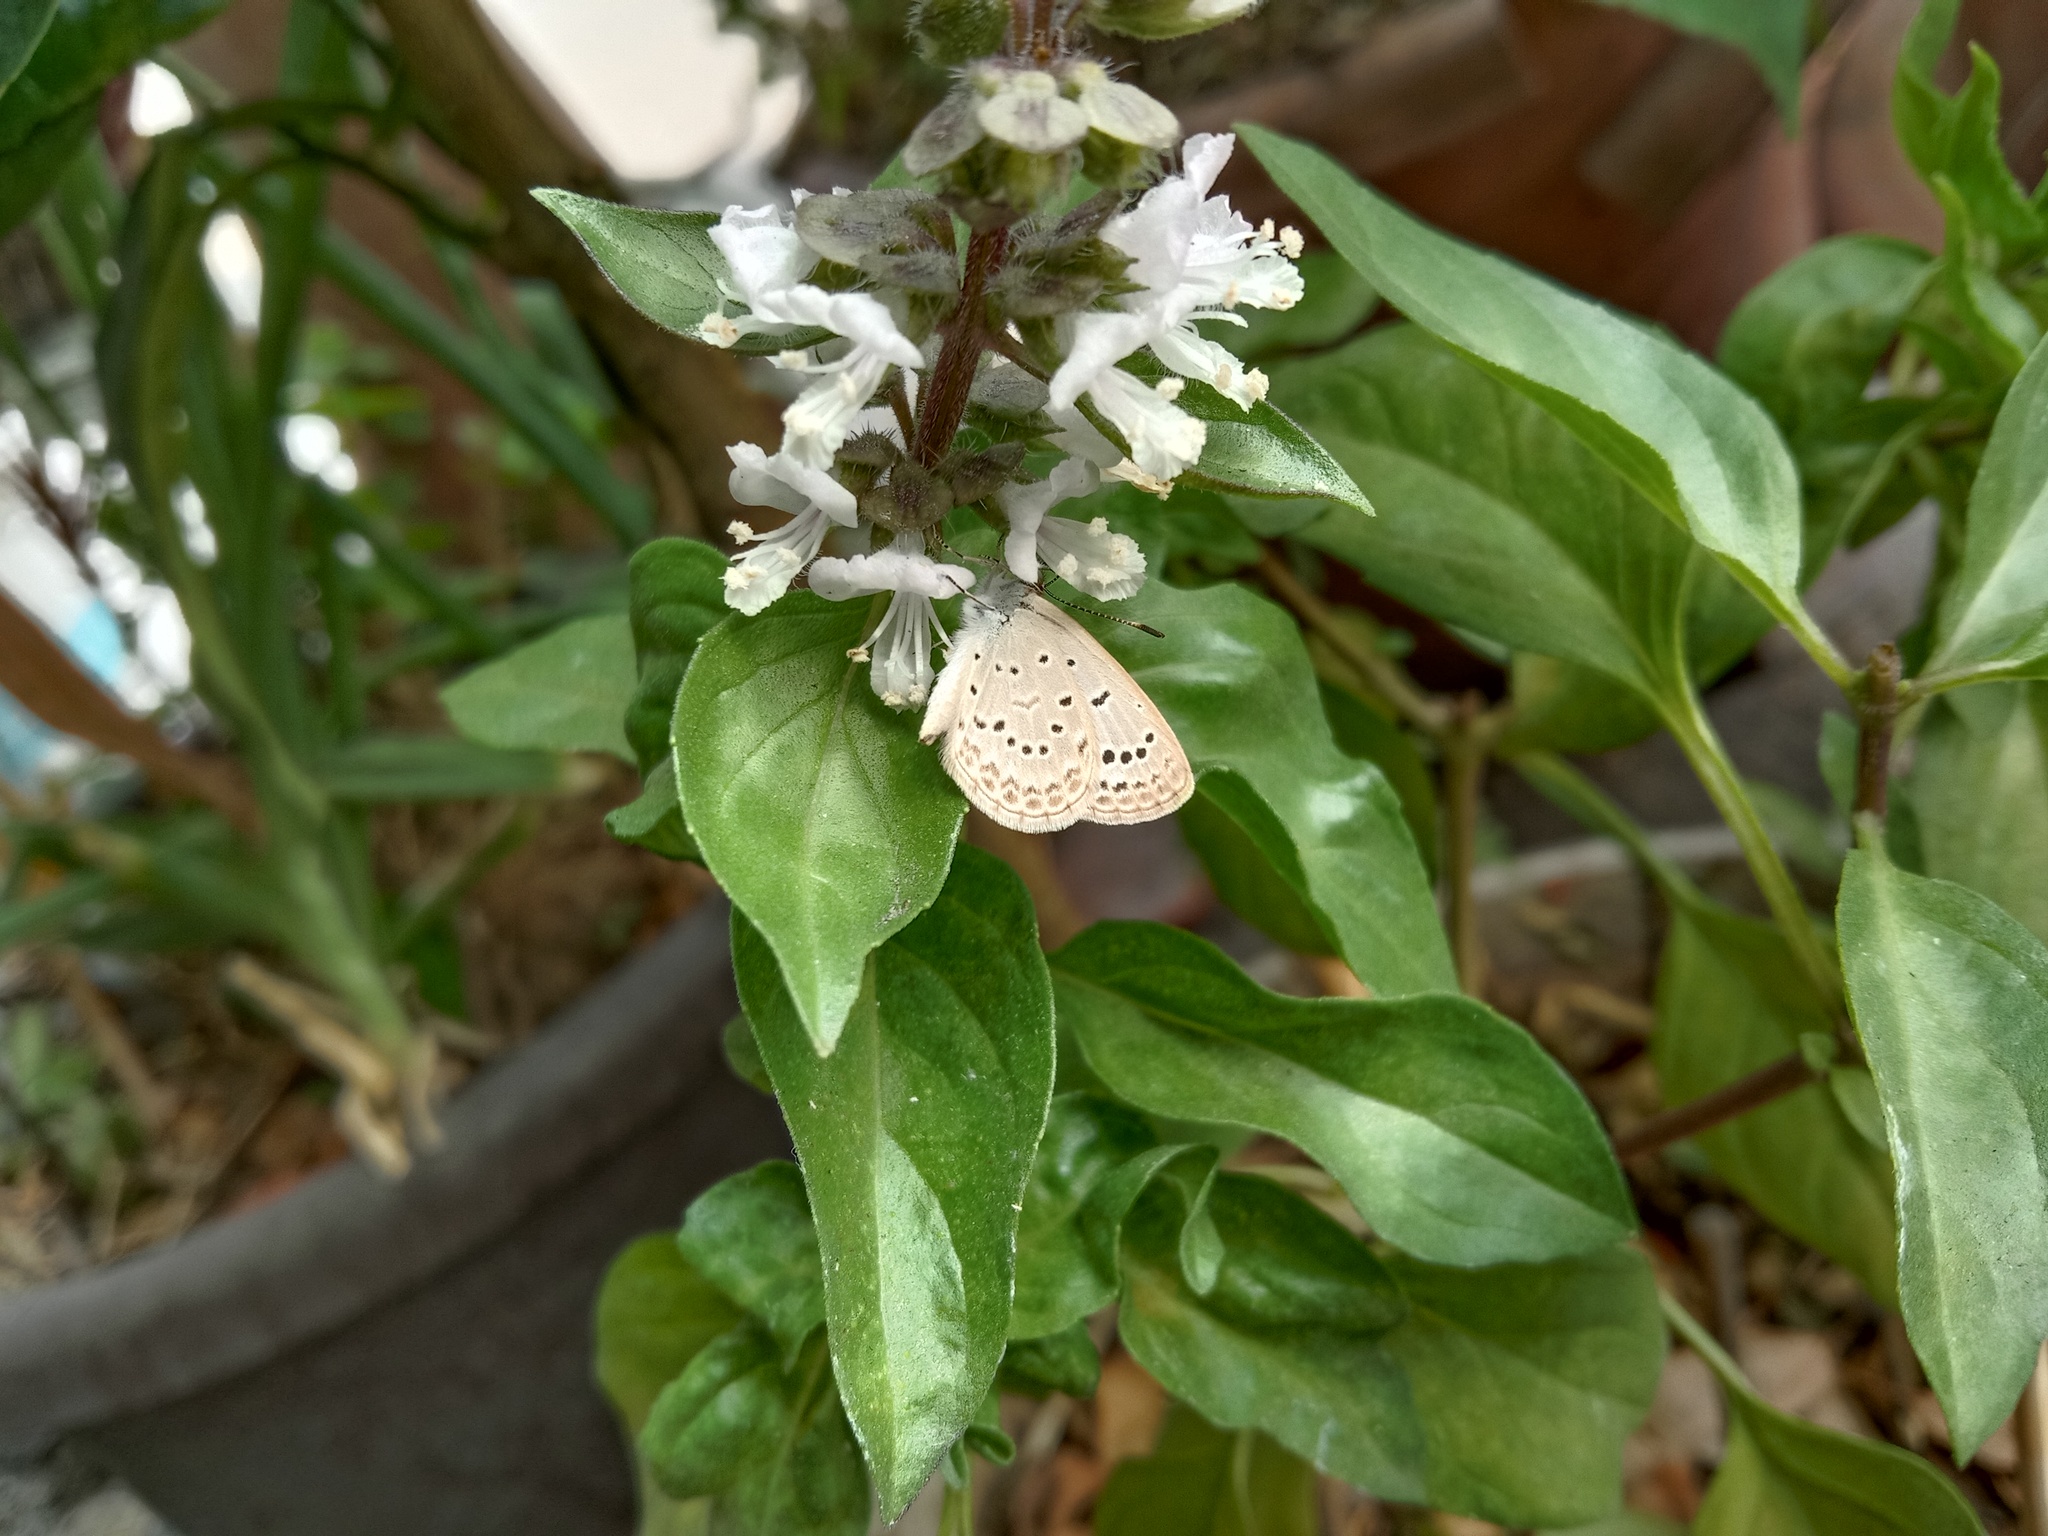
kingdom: Animalia
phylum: Arthropoda
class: Insecta
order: Lepidoptera
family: Lycaenidae
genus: Pseudozizeeria
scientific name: Pseudozizeeria maha
